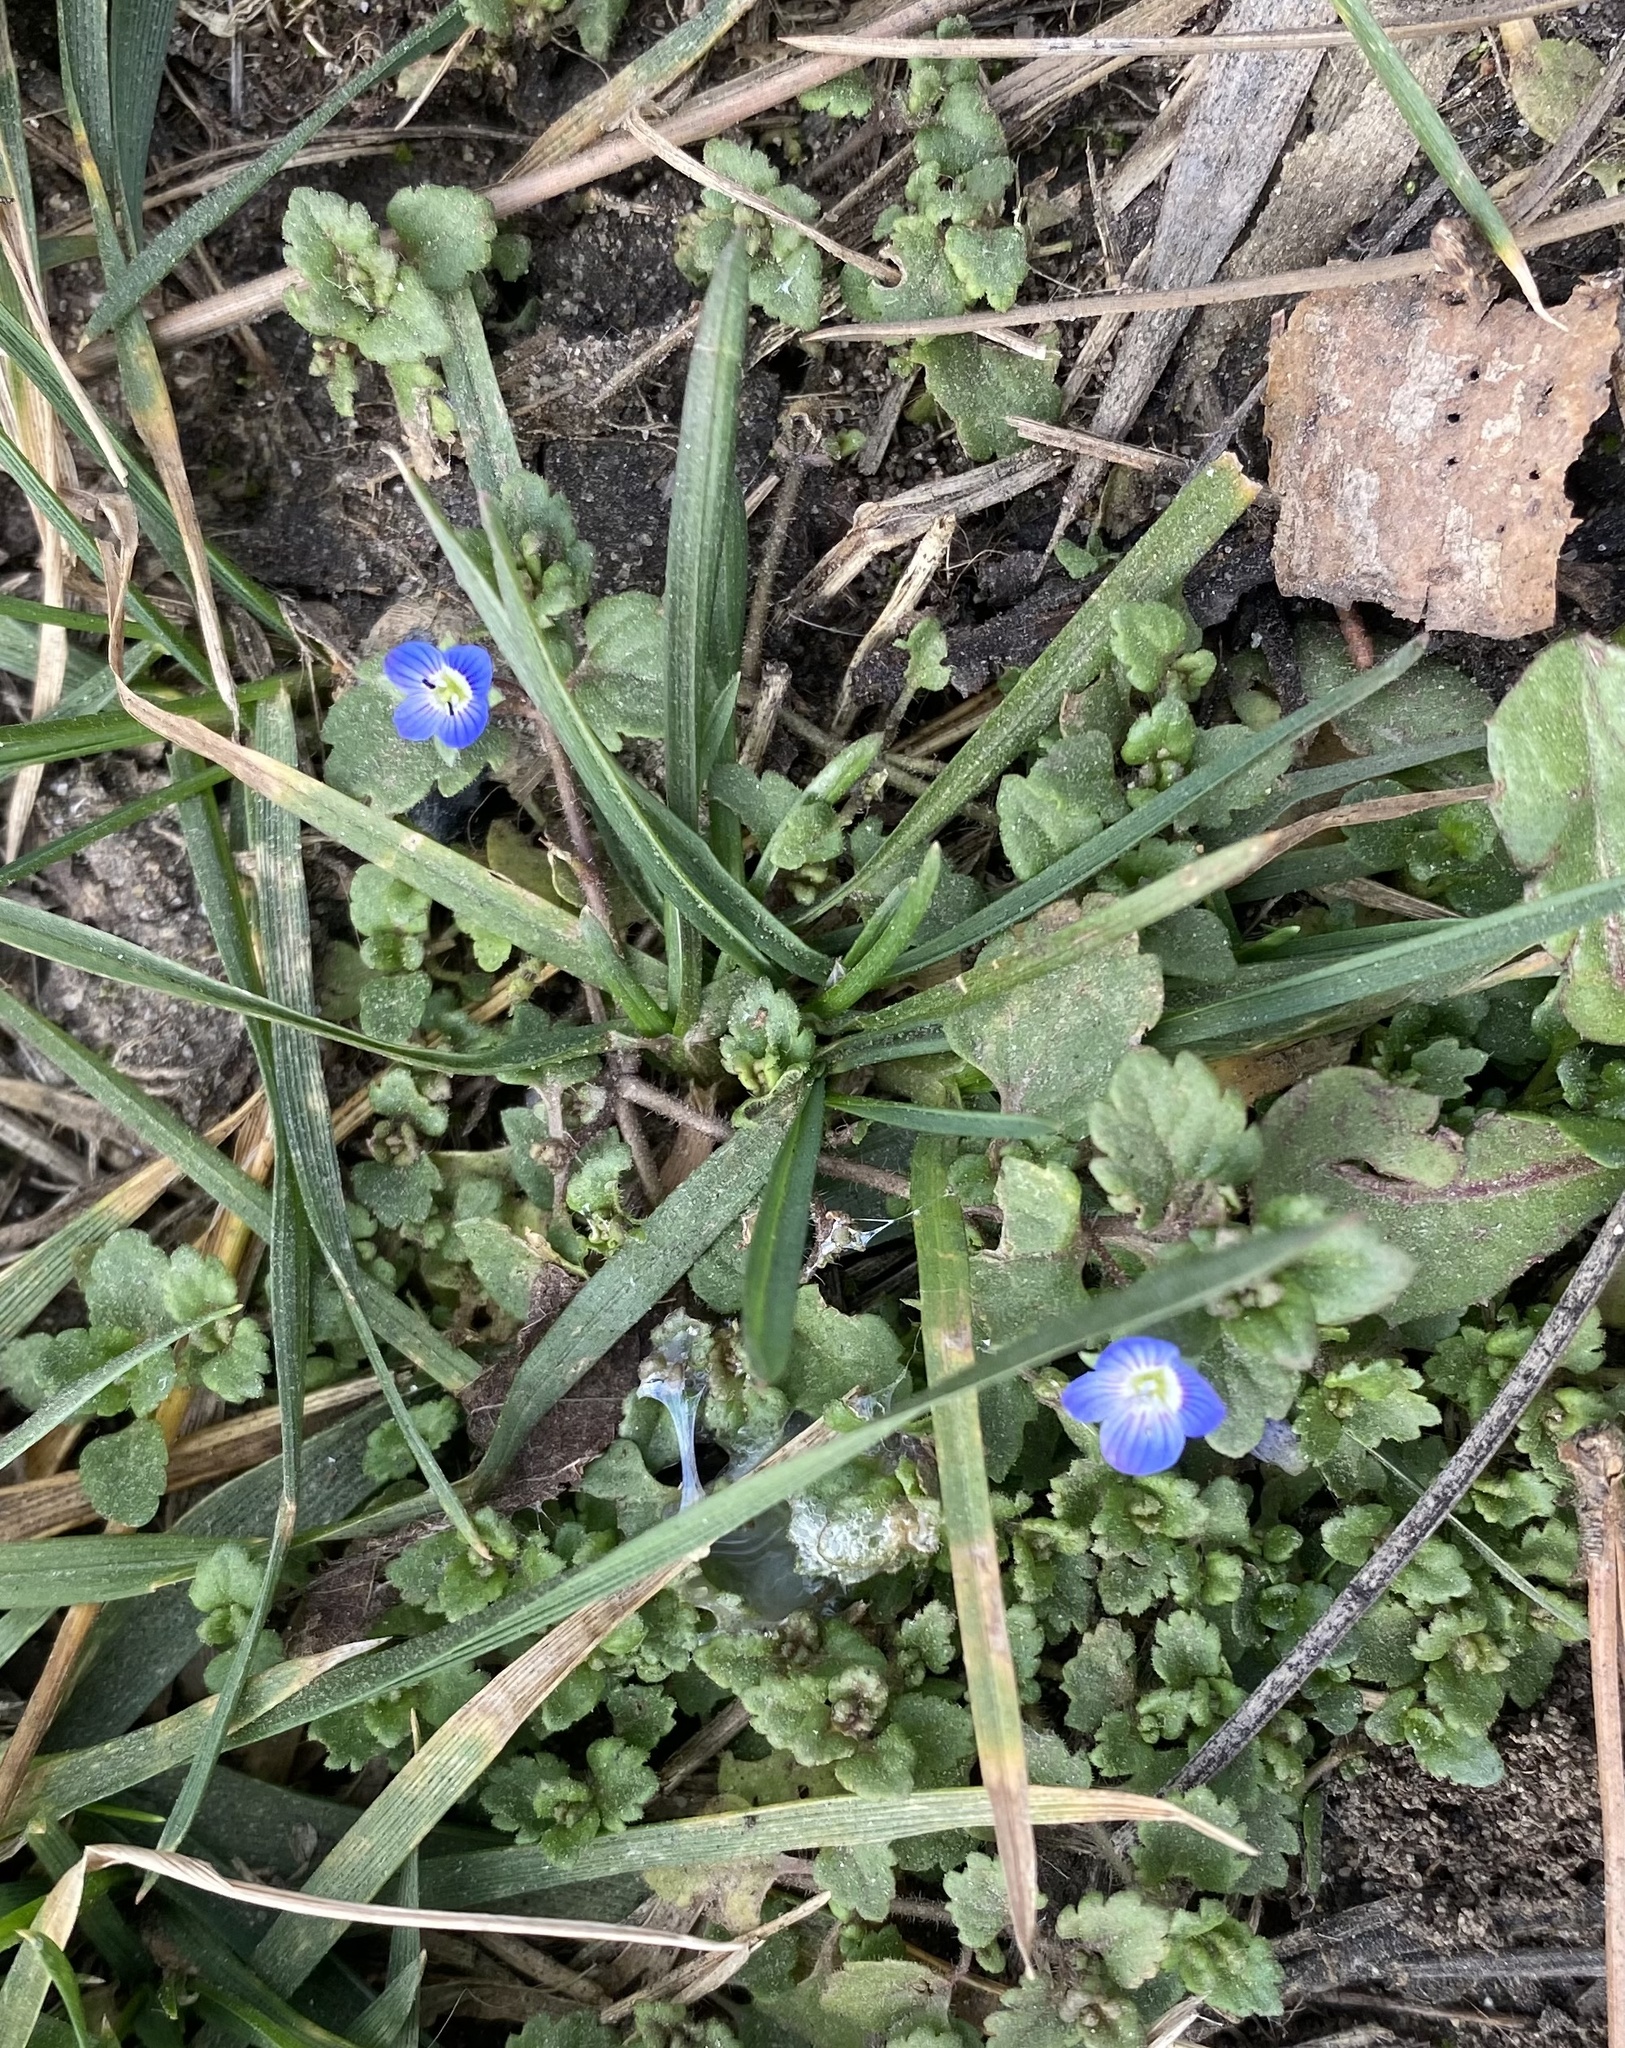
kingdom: Plantae
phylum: Tracheophyta
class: Magnoliopsida
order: Lamiales
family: Plantaginaceae
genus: Veronica
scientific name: Veronica polita
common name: Grey field-speedwell
